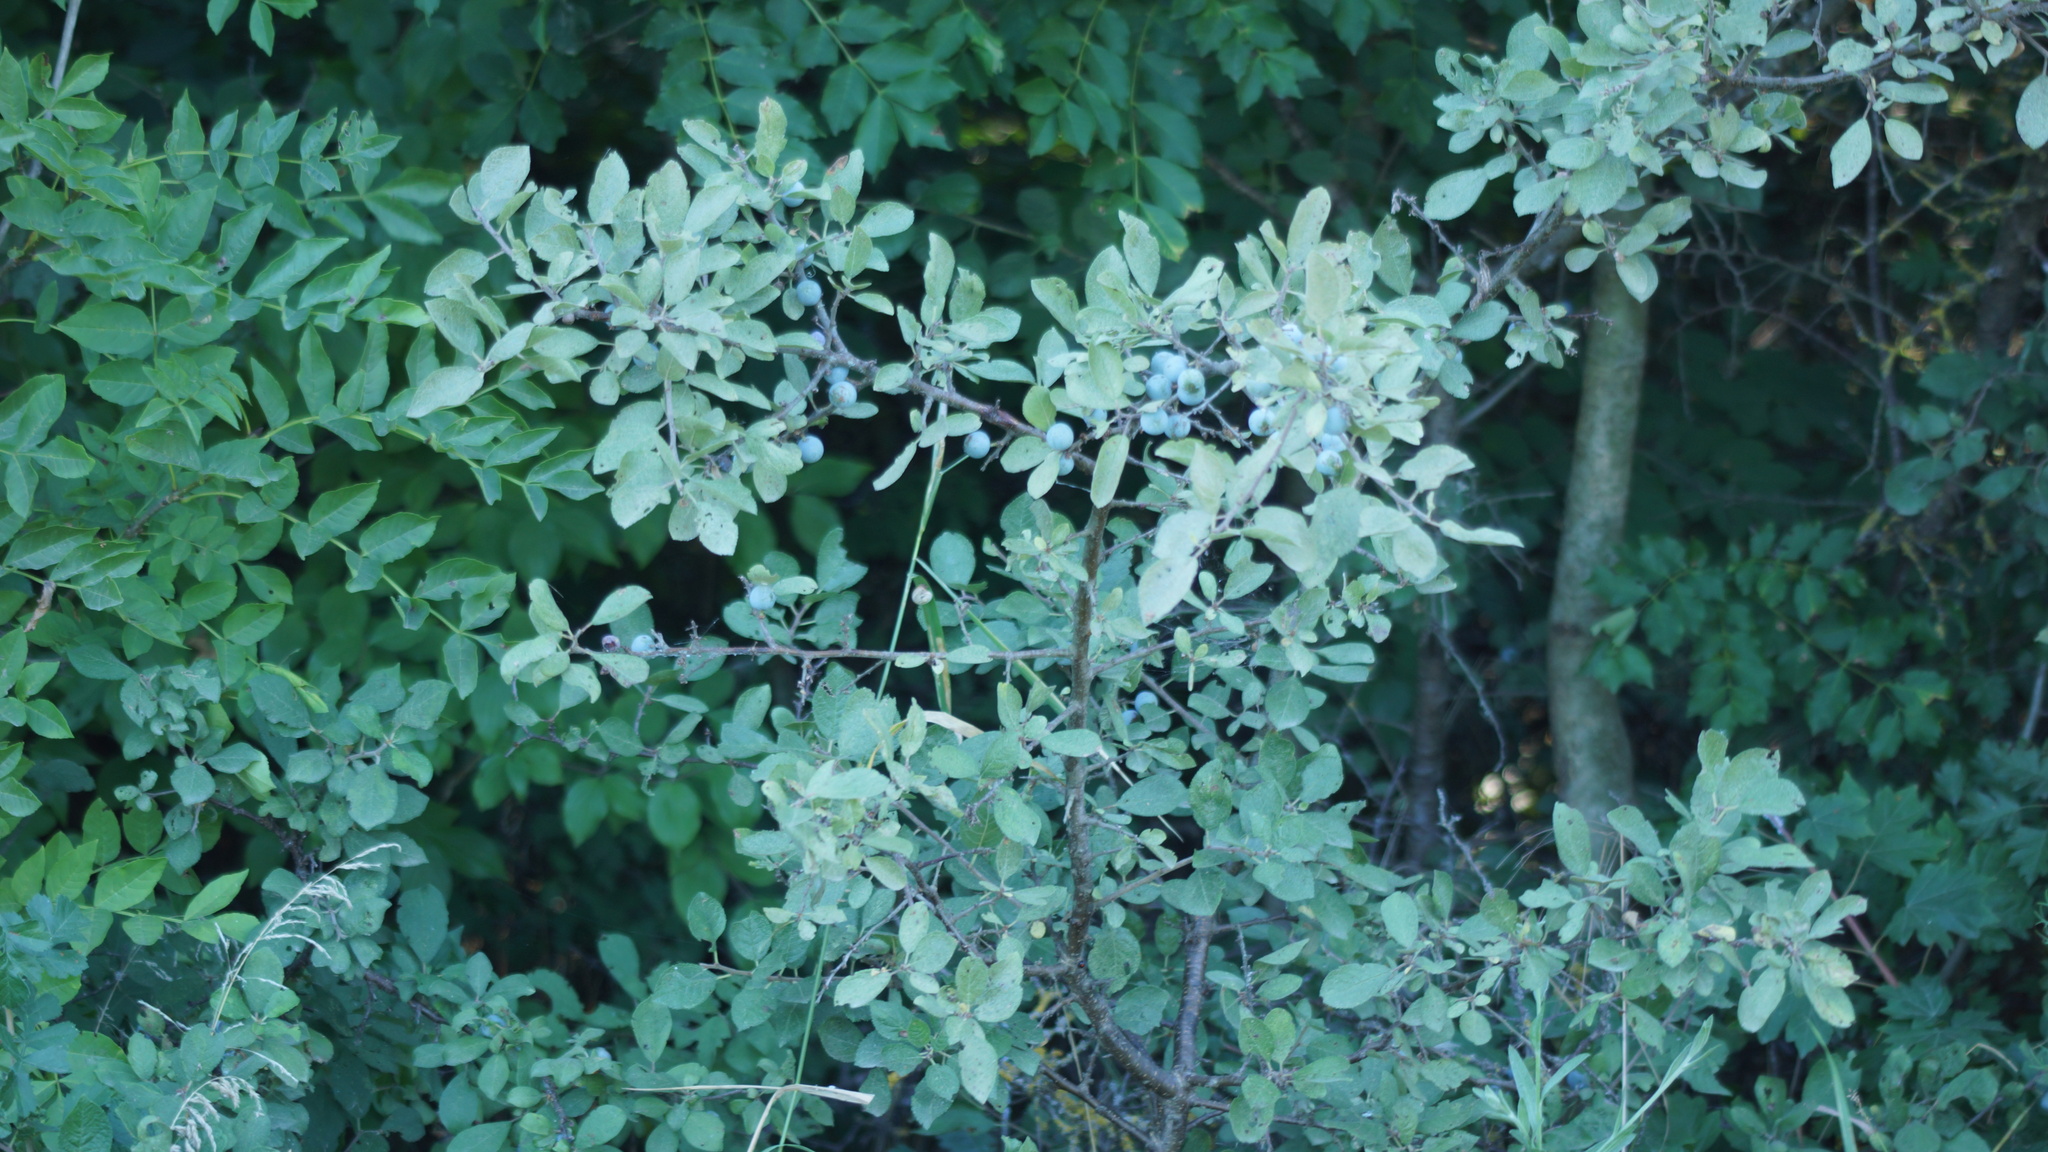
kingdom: Plantae
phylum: Tracheophyta
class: Magnoliopsida
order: Rosales
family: Rosaceae
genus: Prunus
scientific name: Prunus spinosa
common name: Blackthorn
